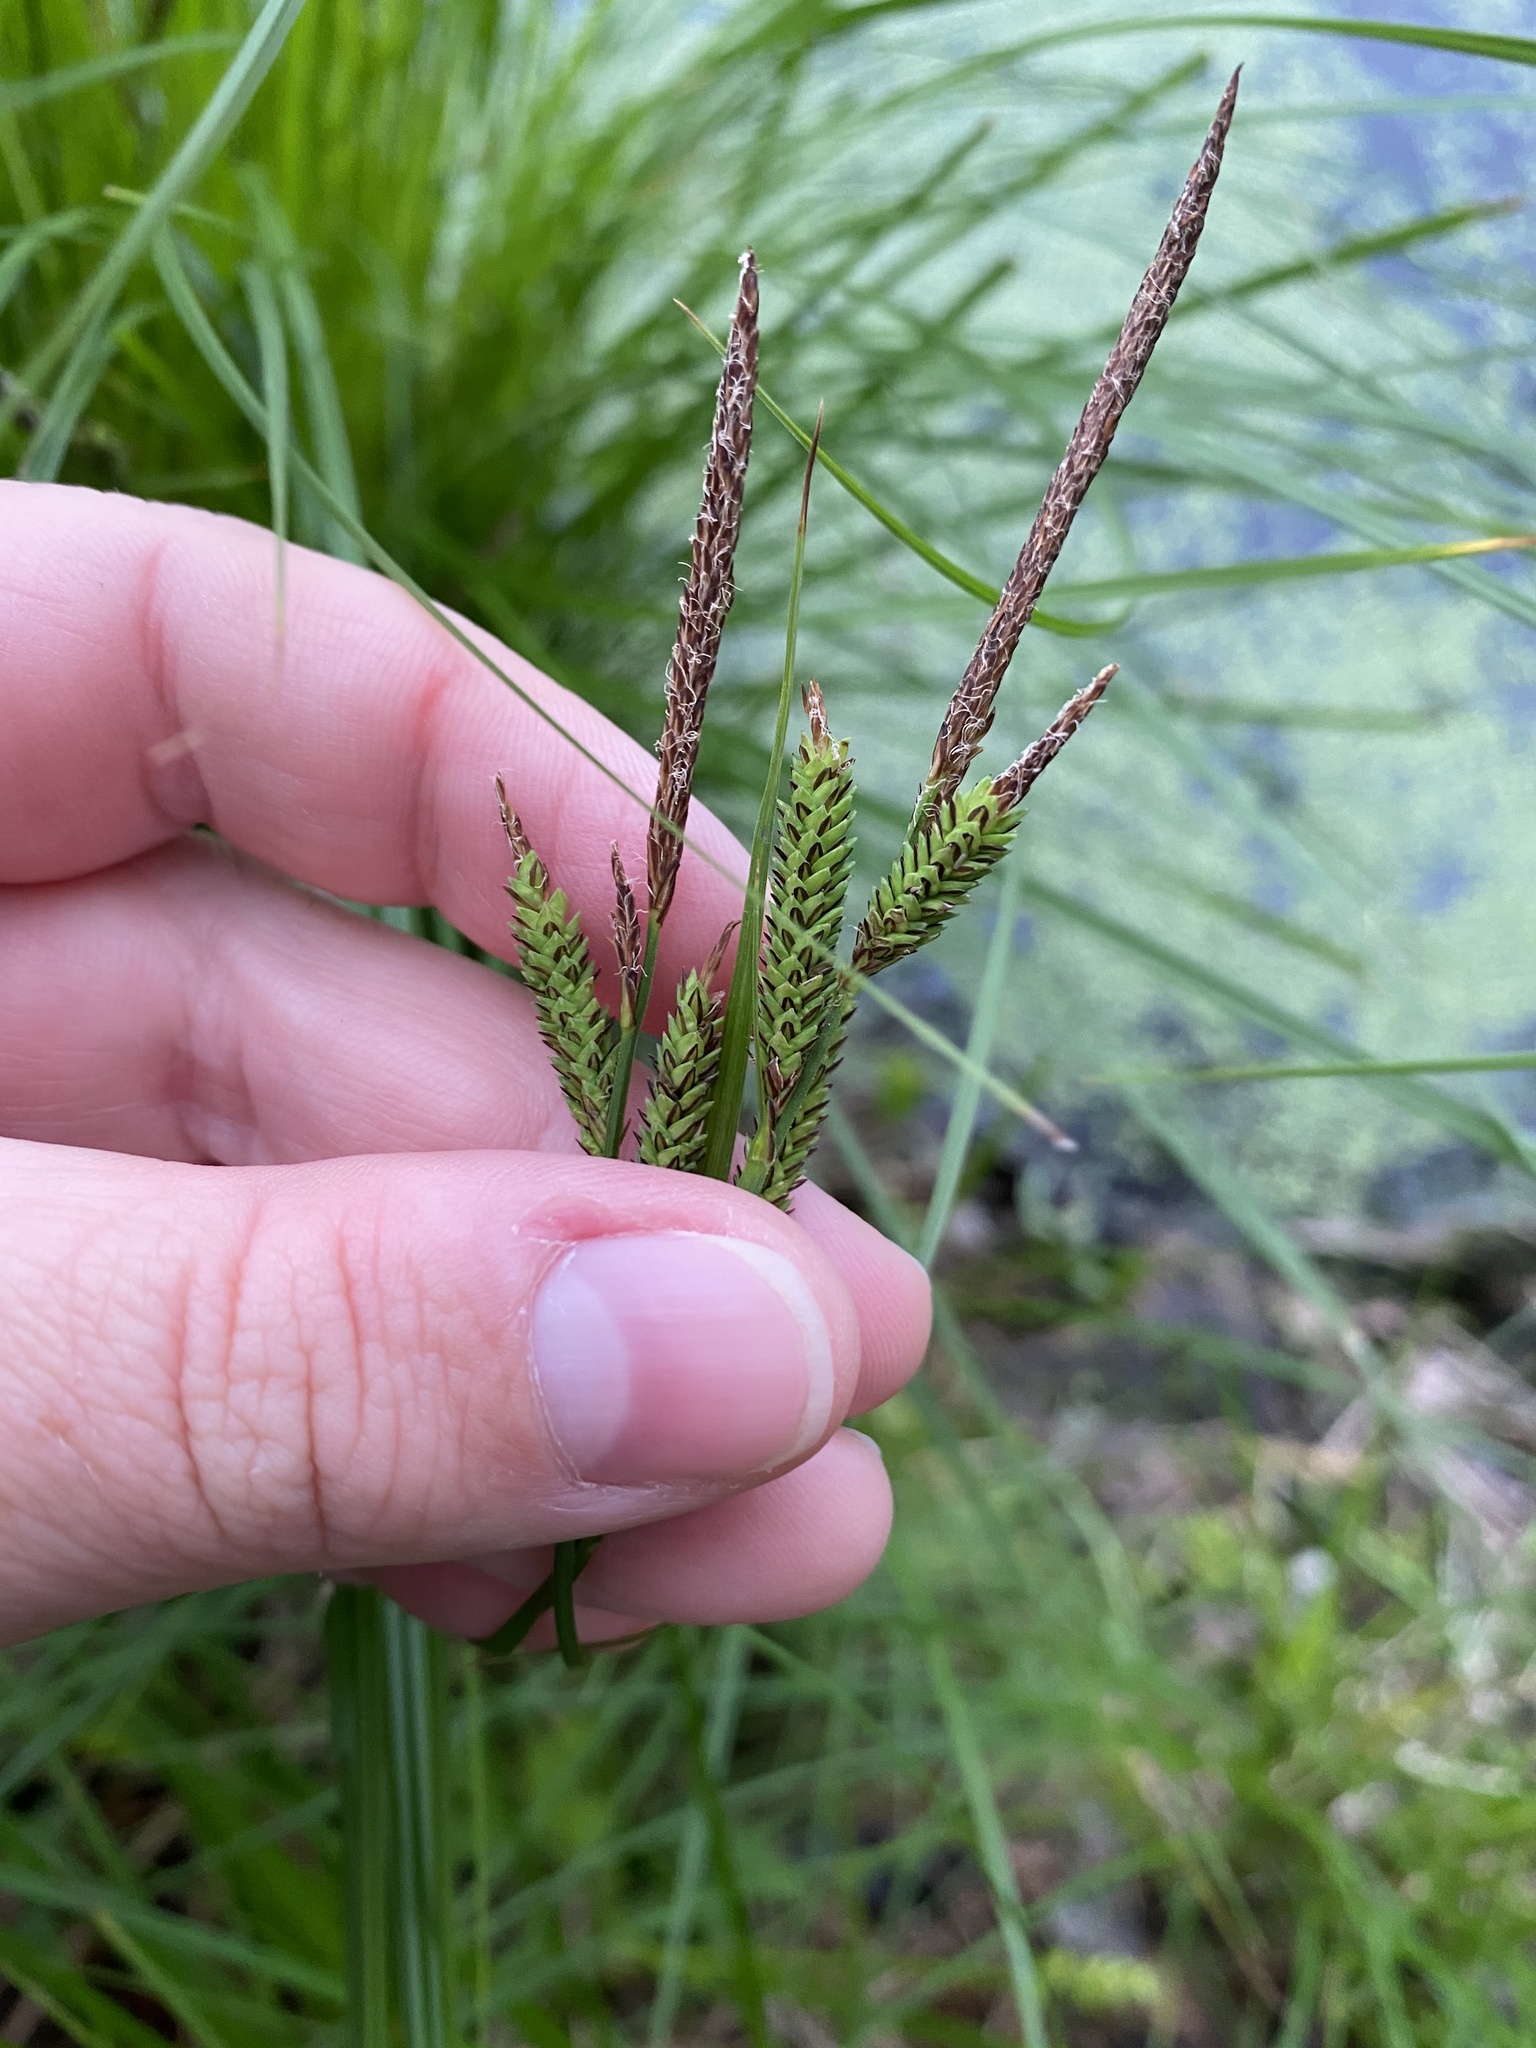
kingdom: Plantae
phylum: Tracheophyta
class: Liliopsida
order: Poales
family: Cyperaceae
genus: Carex
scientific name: Carex stricta
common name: Hummock sedge
